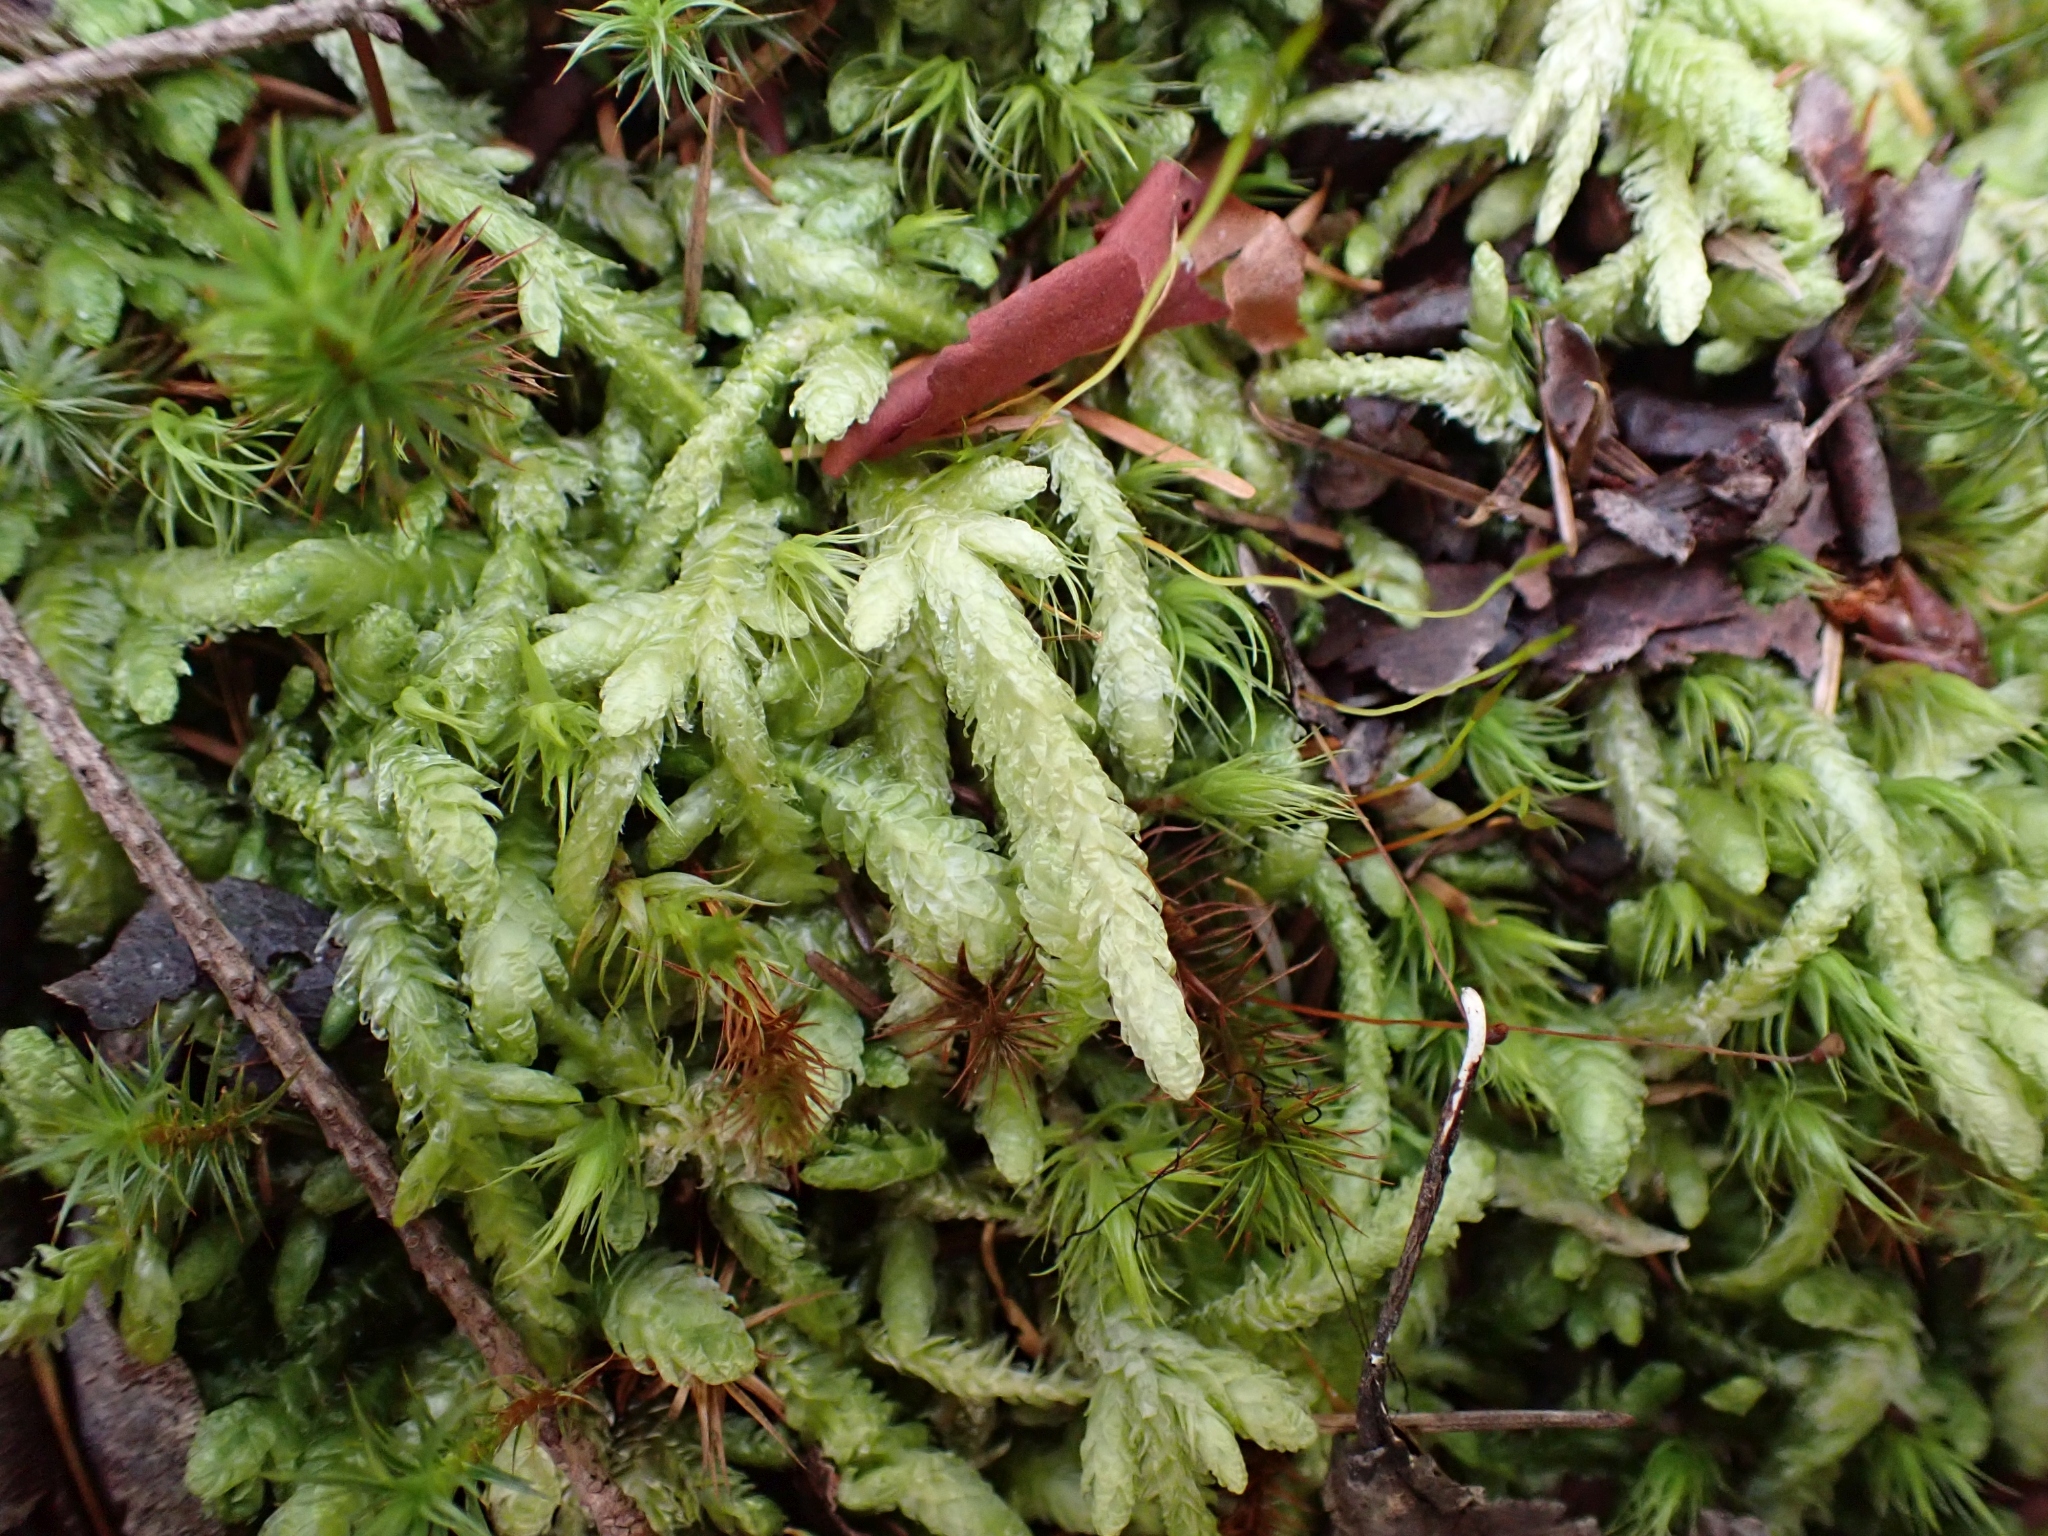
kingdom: Plantae
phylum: Bryophyta
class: Bryopsida
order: Hypnales
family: Plagiotheciaceae
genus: Plagiothecium
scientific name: Plagiothecium undulatum
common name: Waved silk-moss
